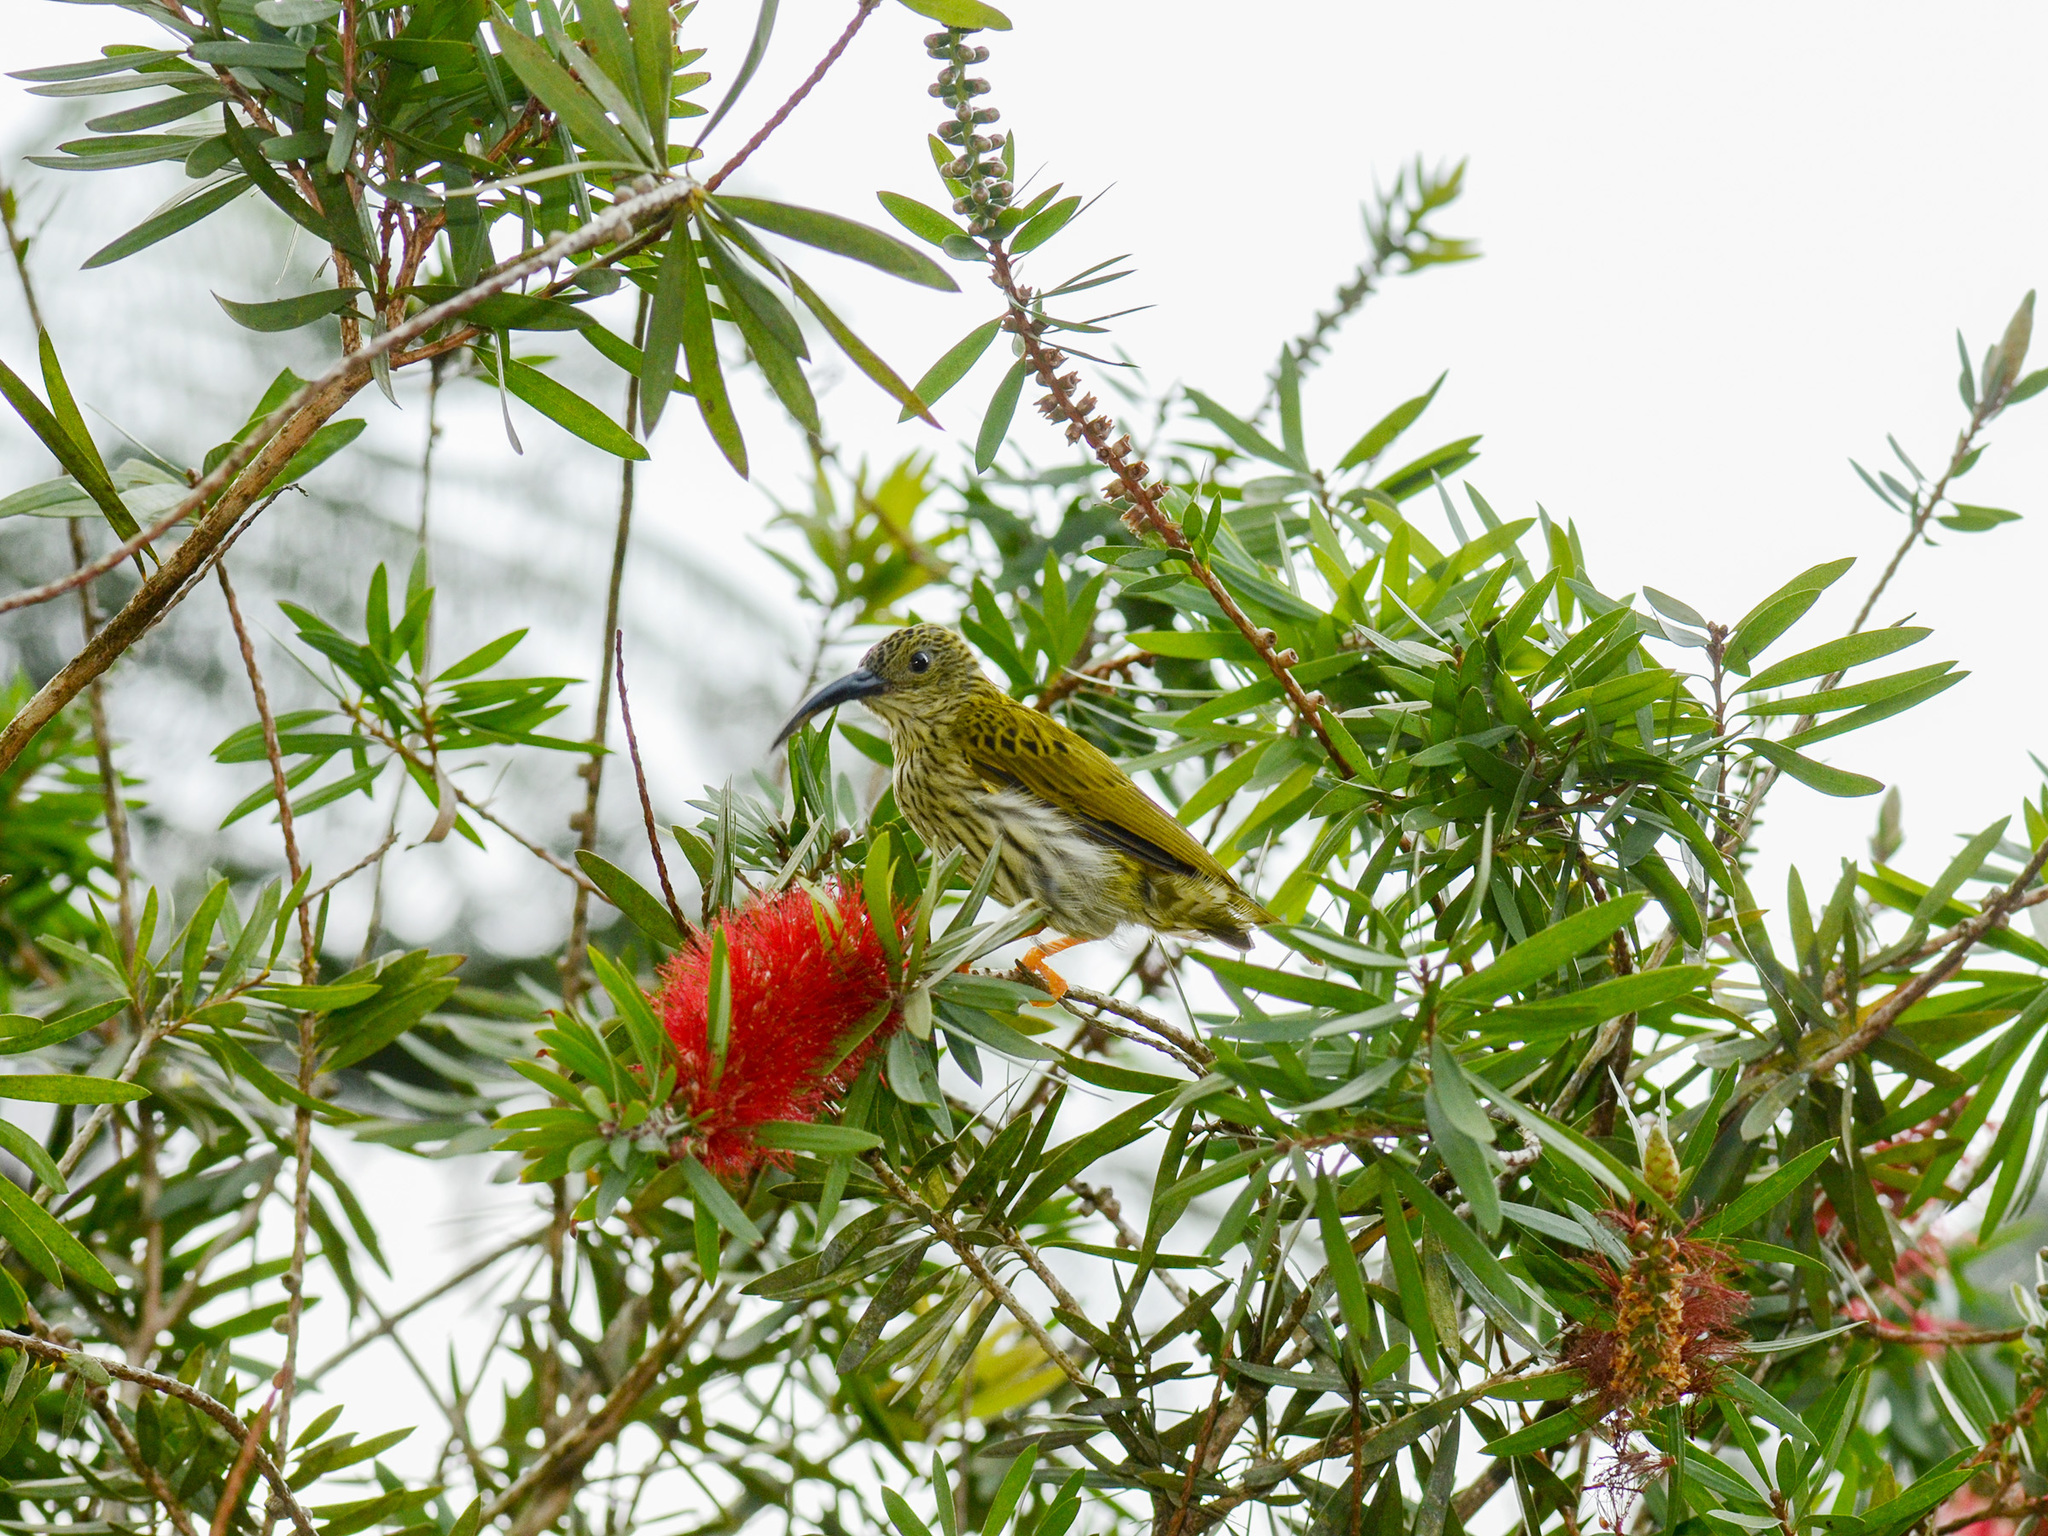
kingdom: Animalia
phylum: Chordata
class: Aves
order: Passeriformes
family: Nectariniidae
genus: Arachnothera
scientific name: Arachnothera magna
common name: Streaked spiderhunter
